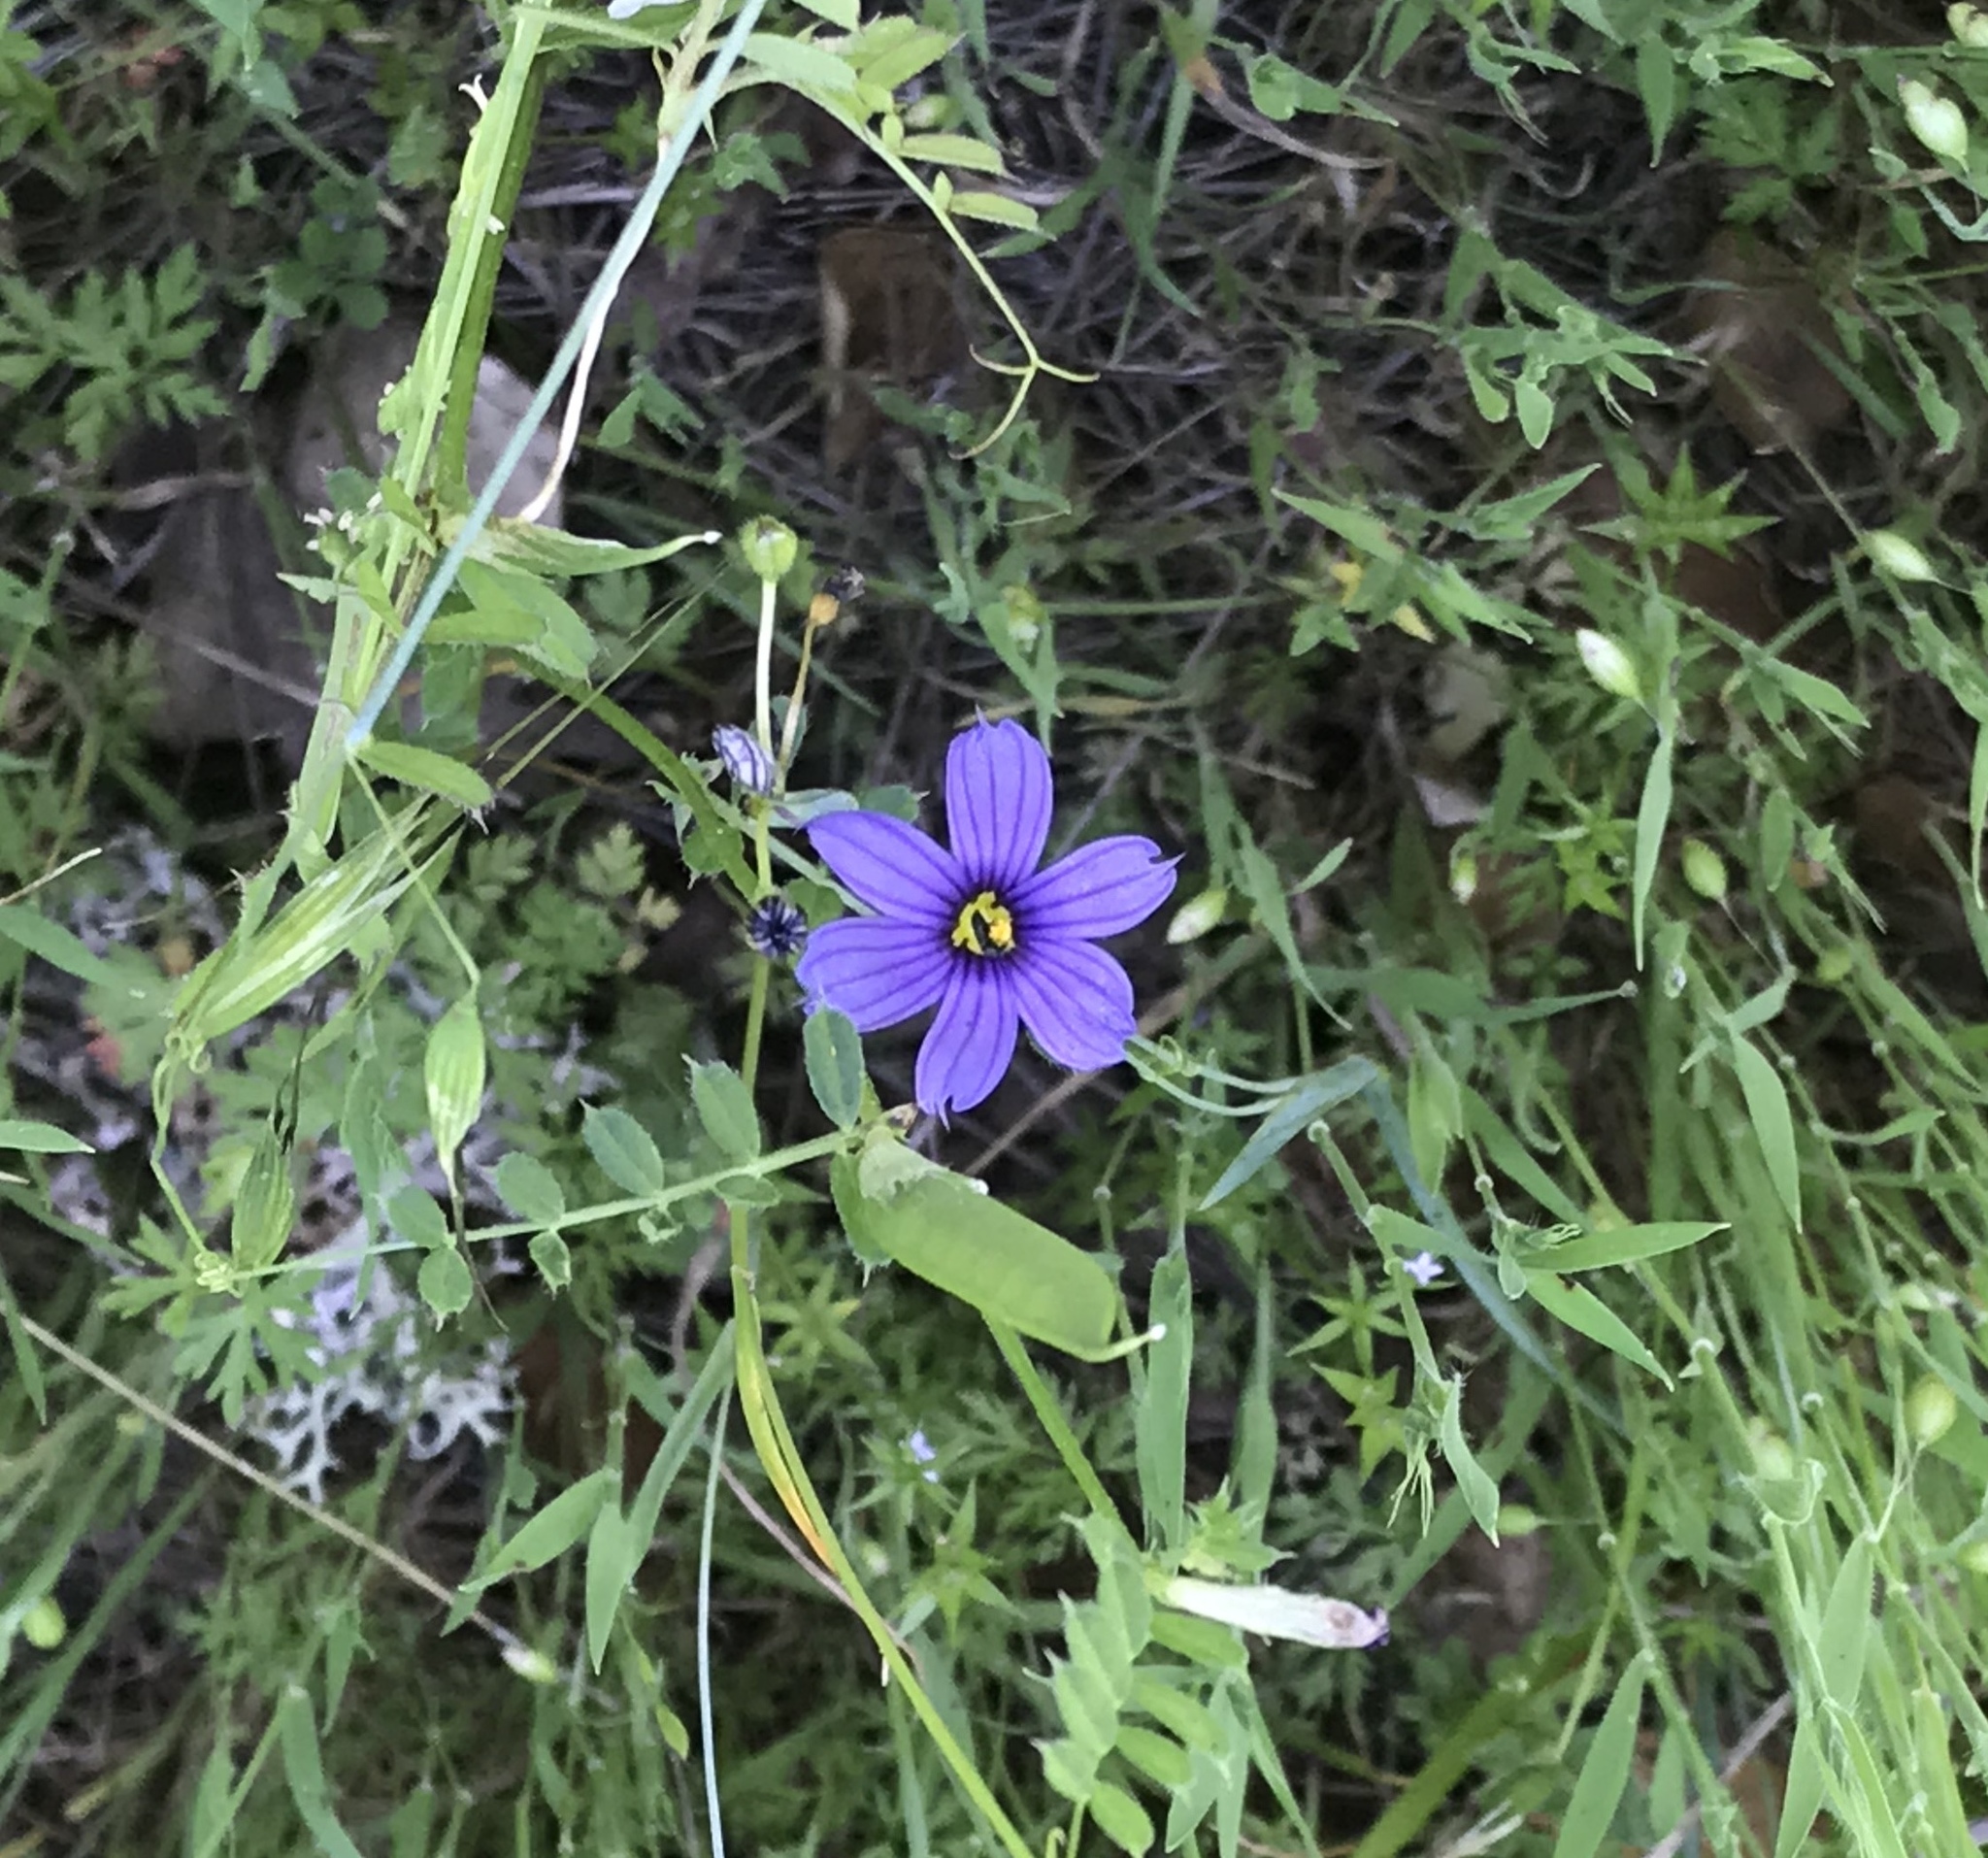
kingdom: Plantae
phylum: Tracheophyta
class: Liliopsida
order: Asparagales
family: Iridaceae
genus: Sisyrinchium
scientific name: Sisyrinchium bellum
